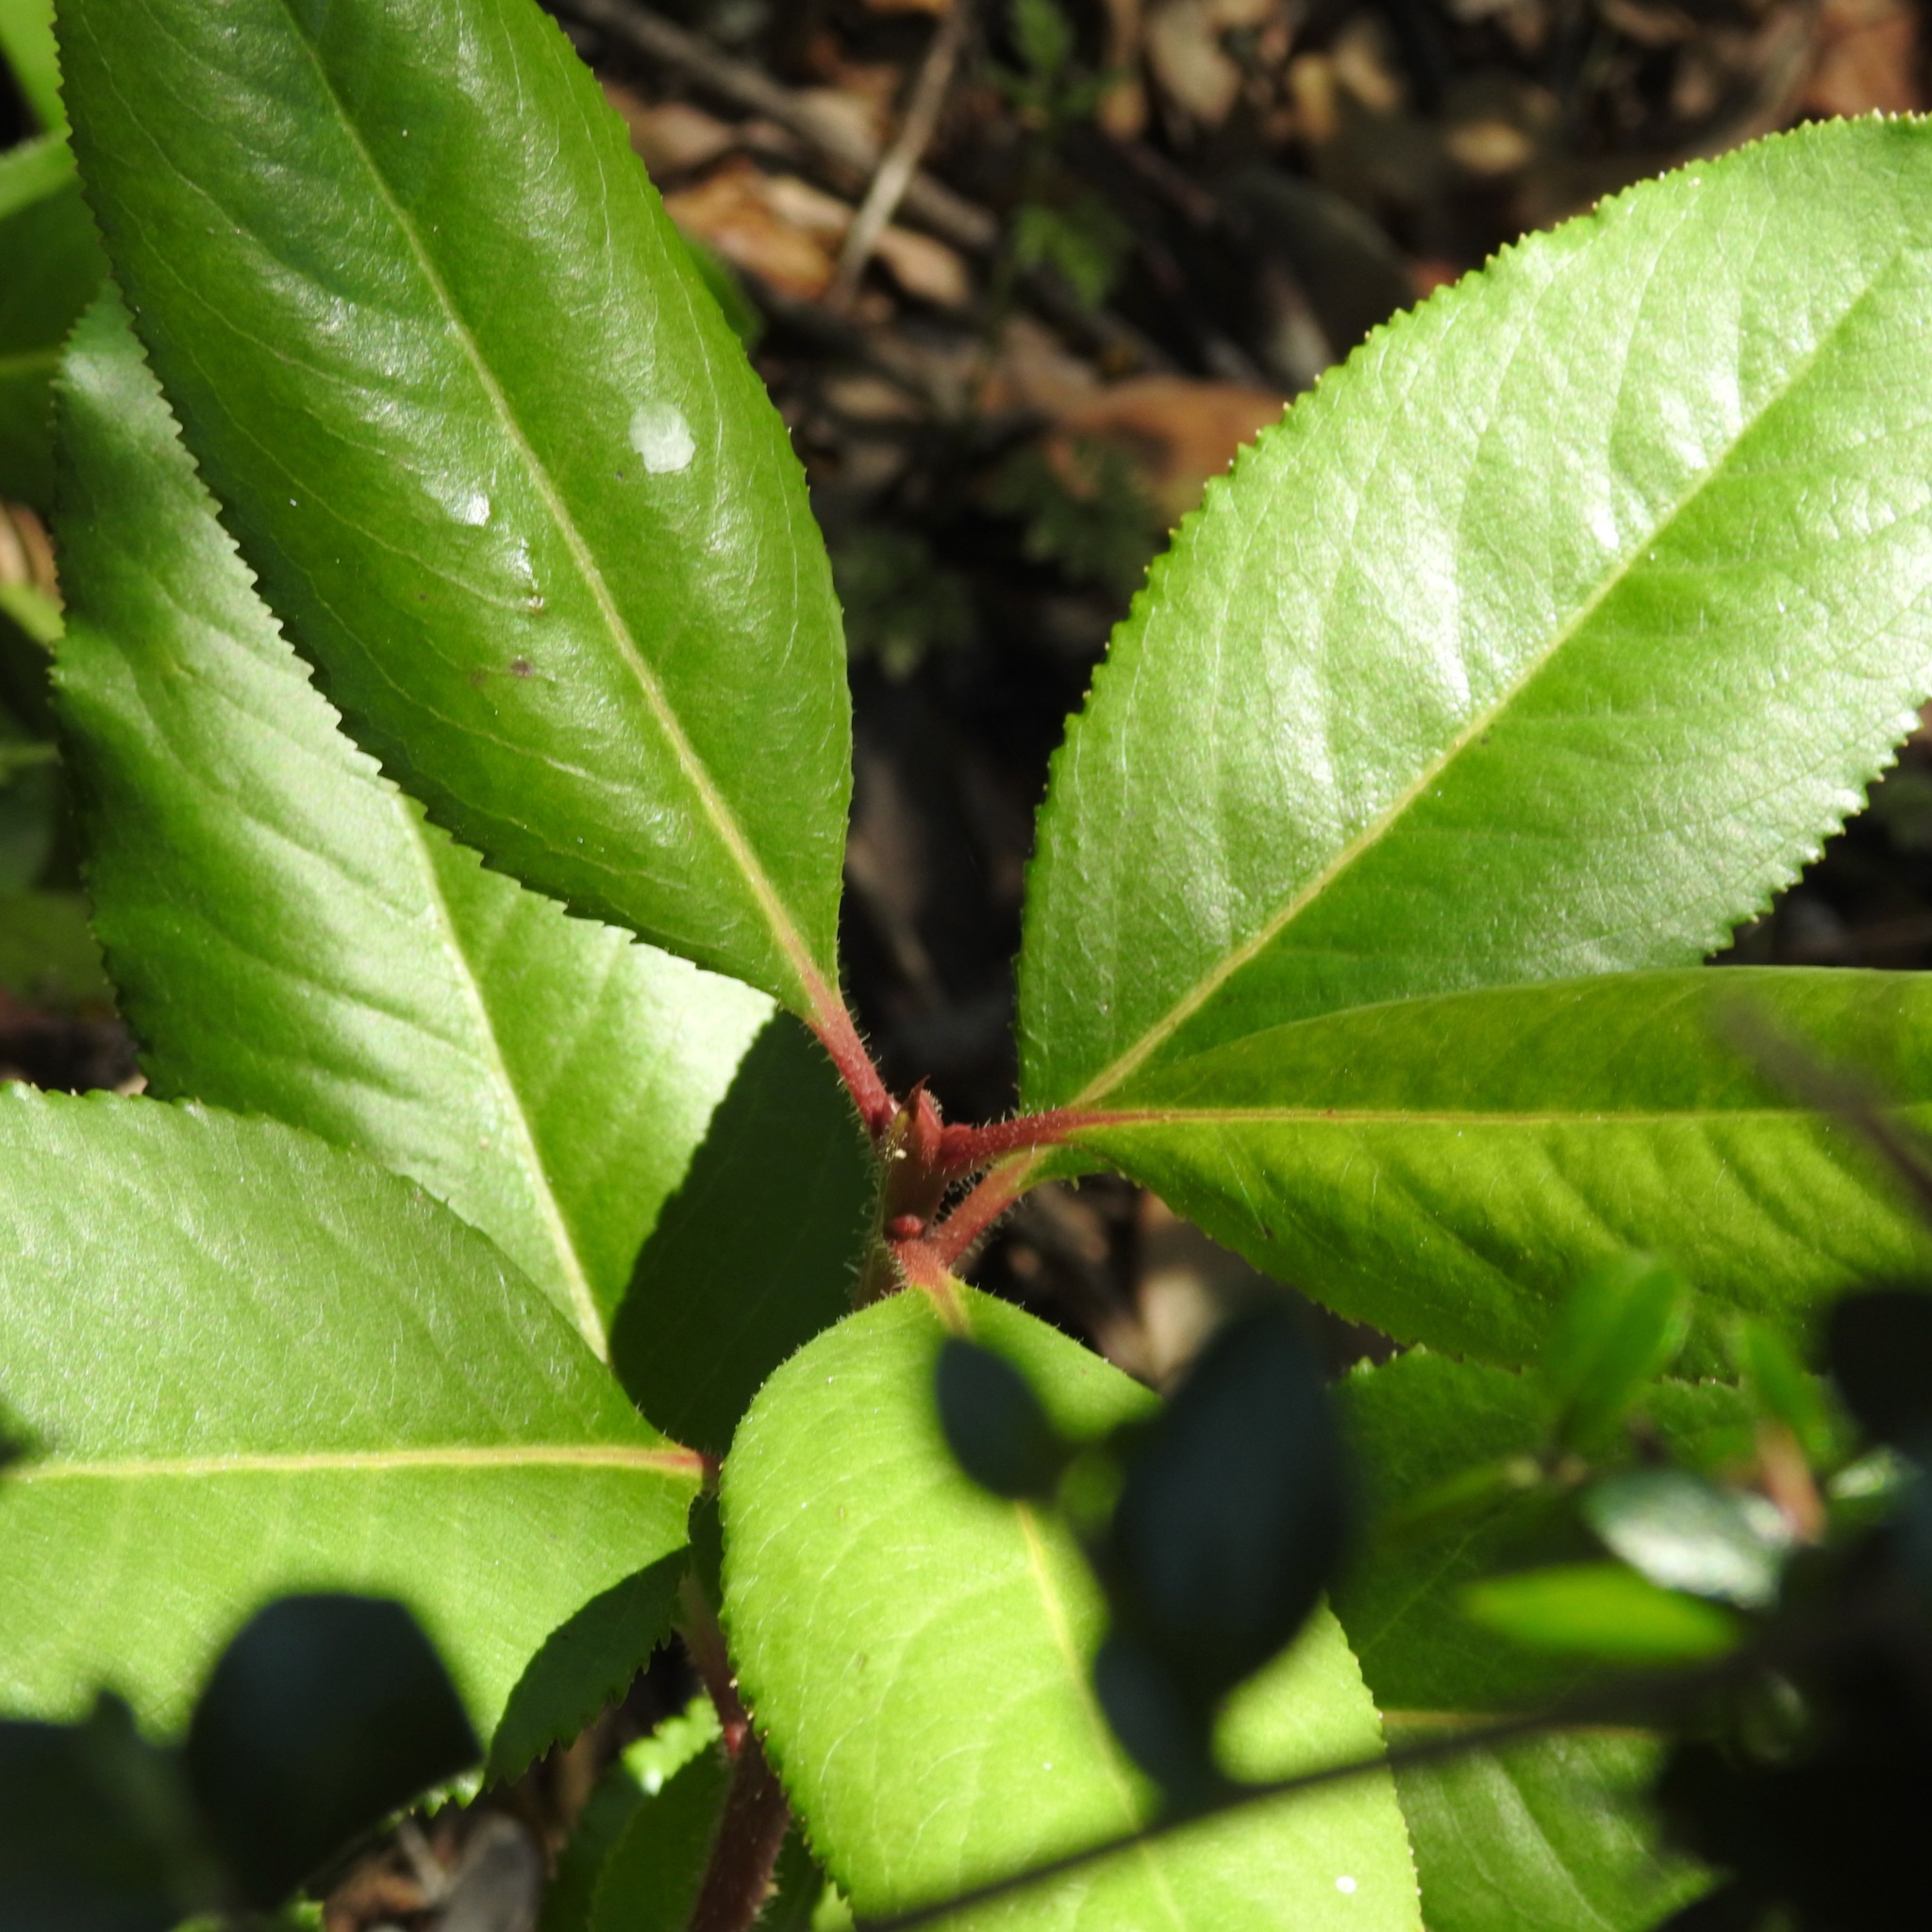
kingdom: Plantae
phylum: Tracheophyta
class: Magnoliopsida
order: Rosales
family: Rosaceae
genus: Heteromeles
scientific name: Heteromeles arbutifolia
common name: California-holly
